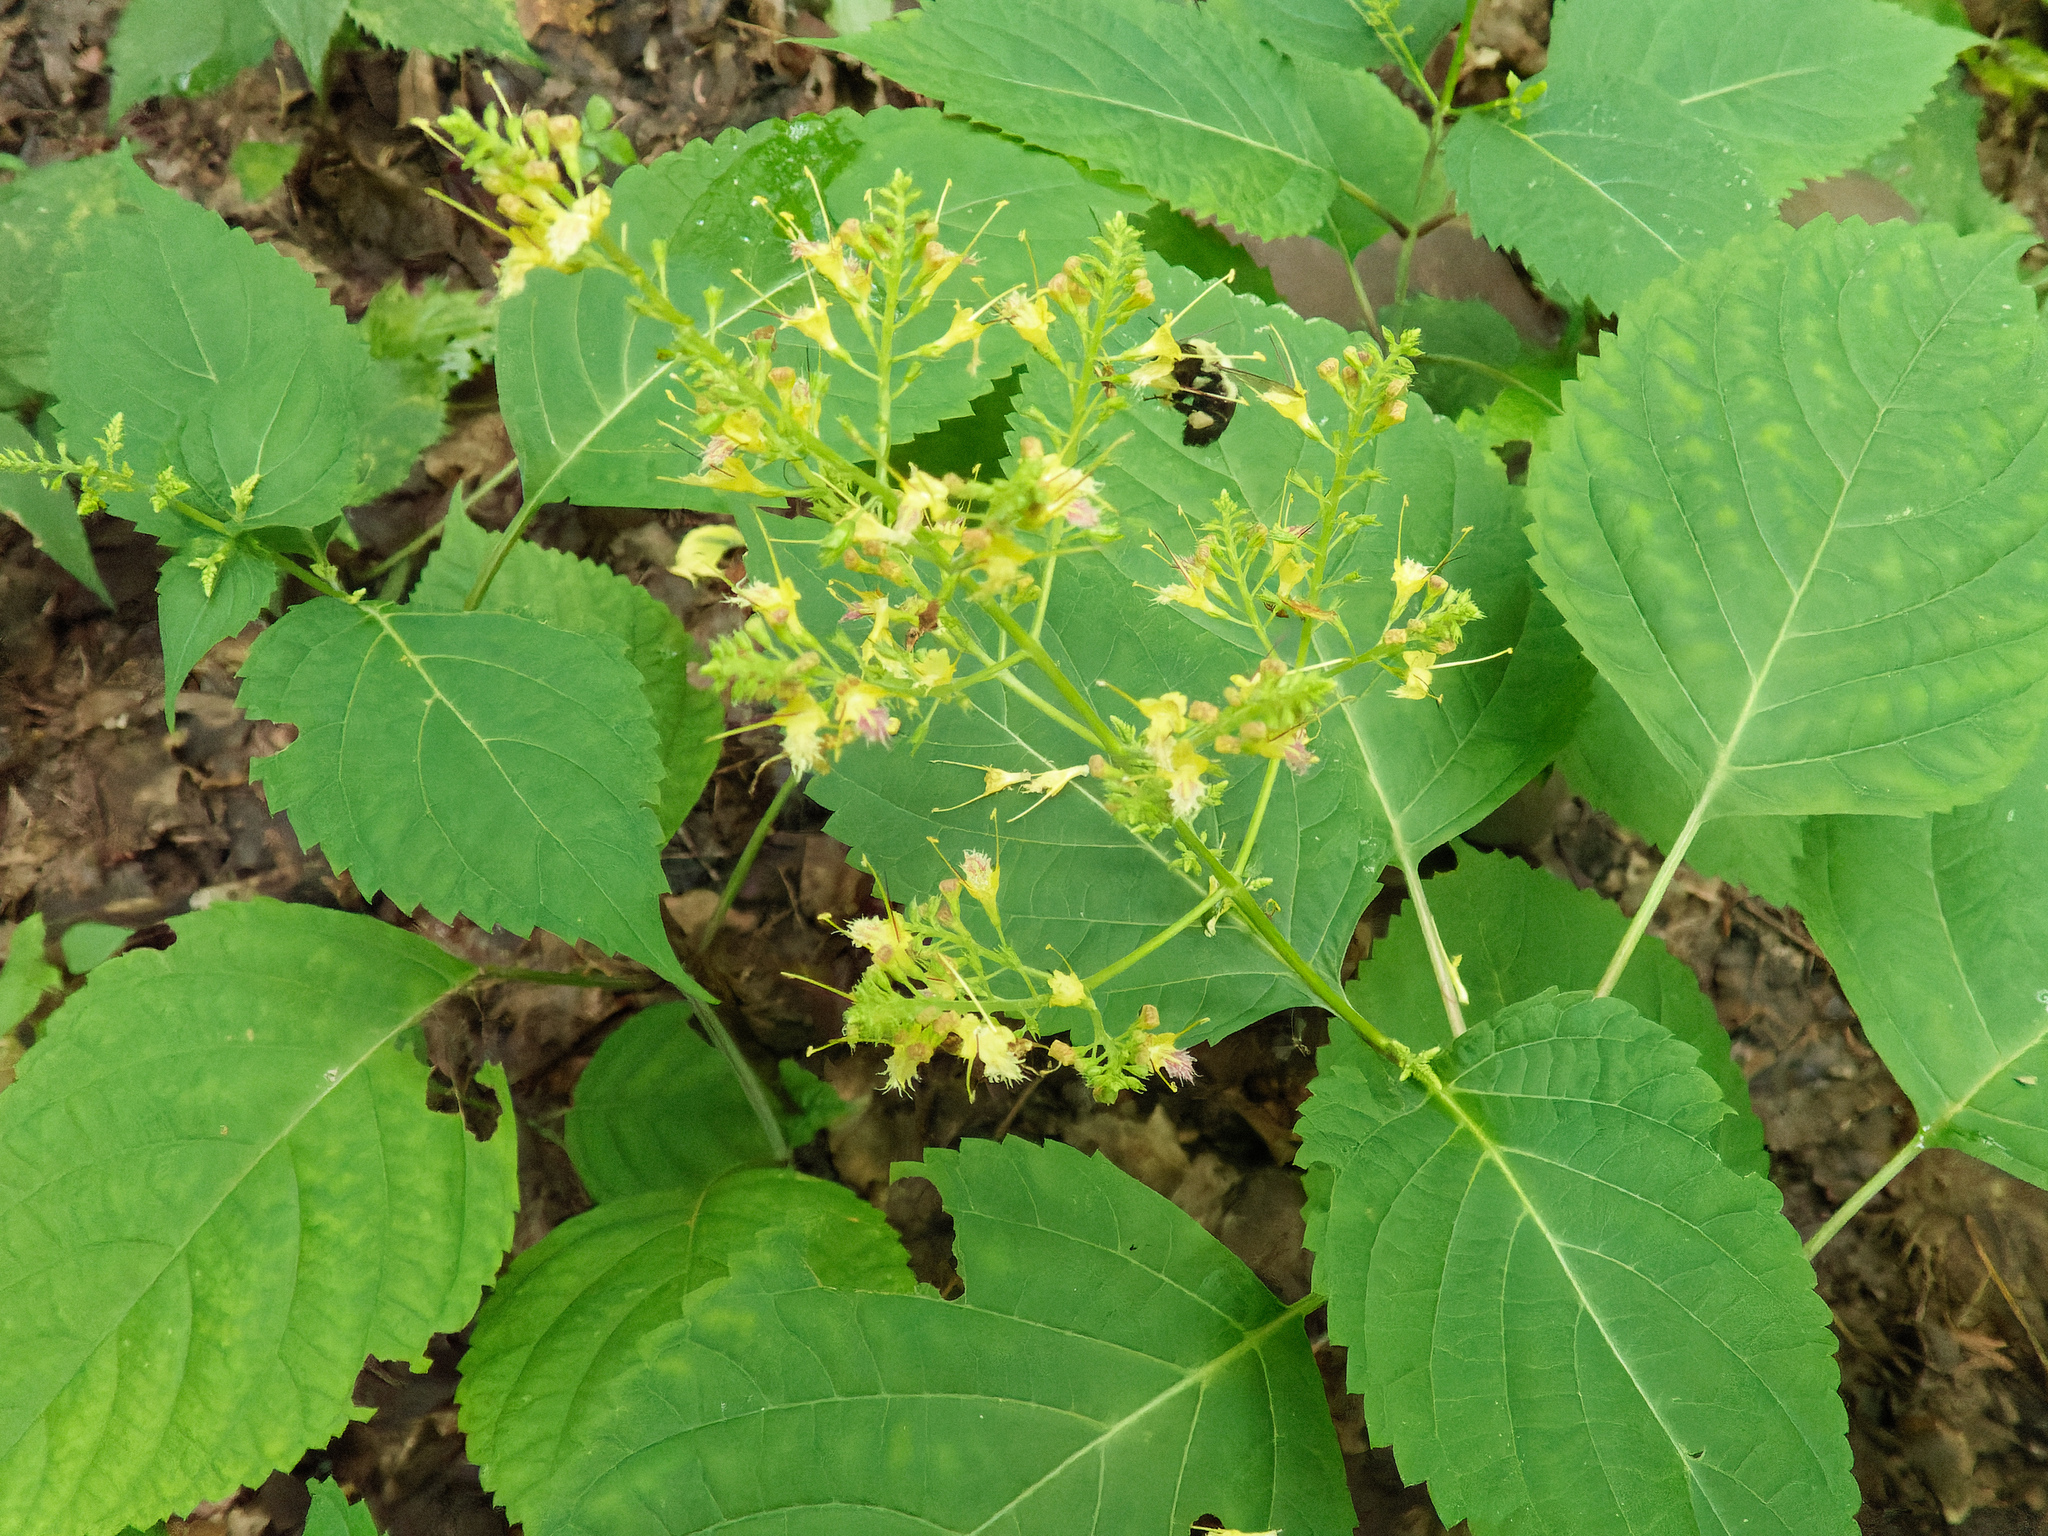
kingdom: Plantae
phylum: Tracheophyta
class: Magnoliopsida
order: Lamiales
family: Lamiaceae
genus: Collinsonia
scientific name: Collinsonia canadensis
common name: Northern horsebalm
